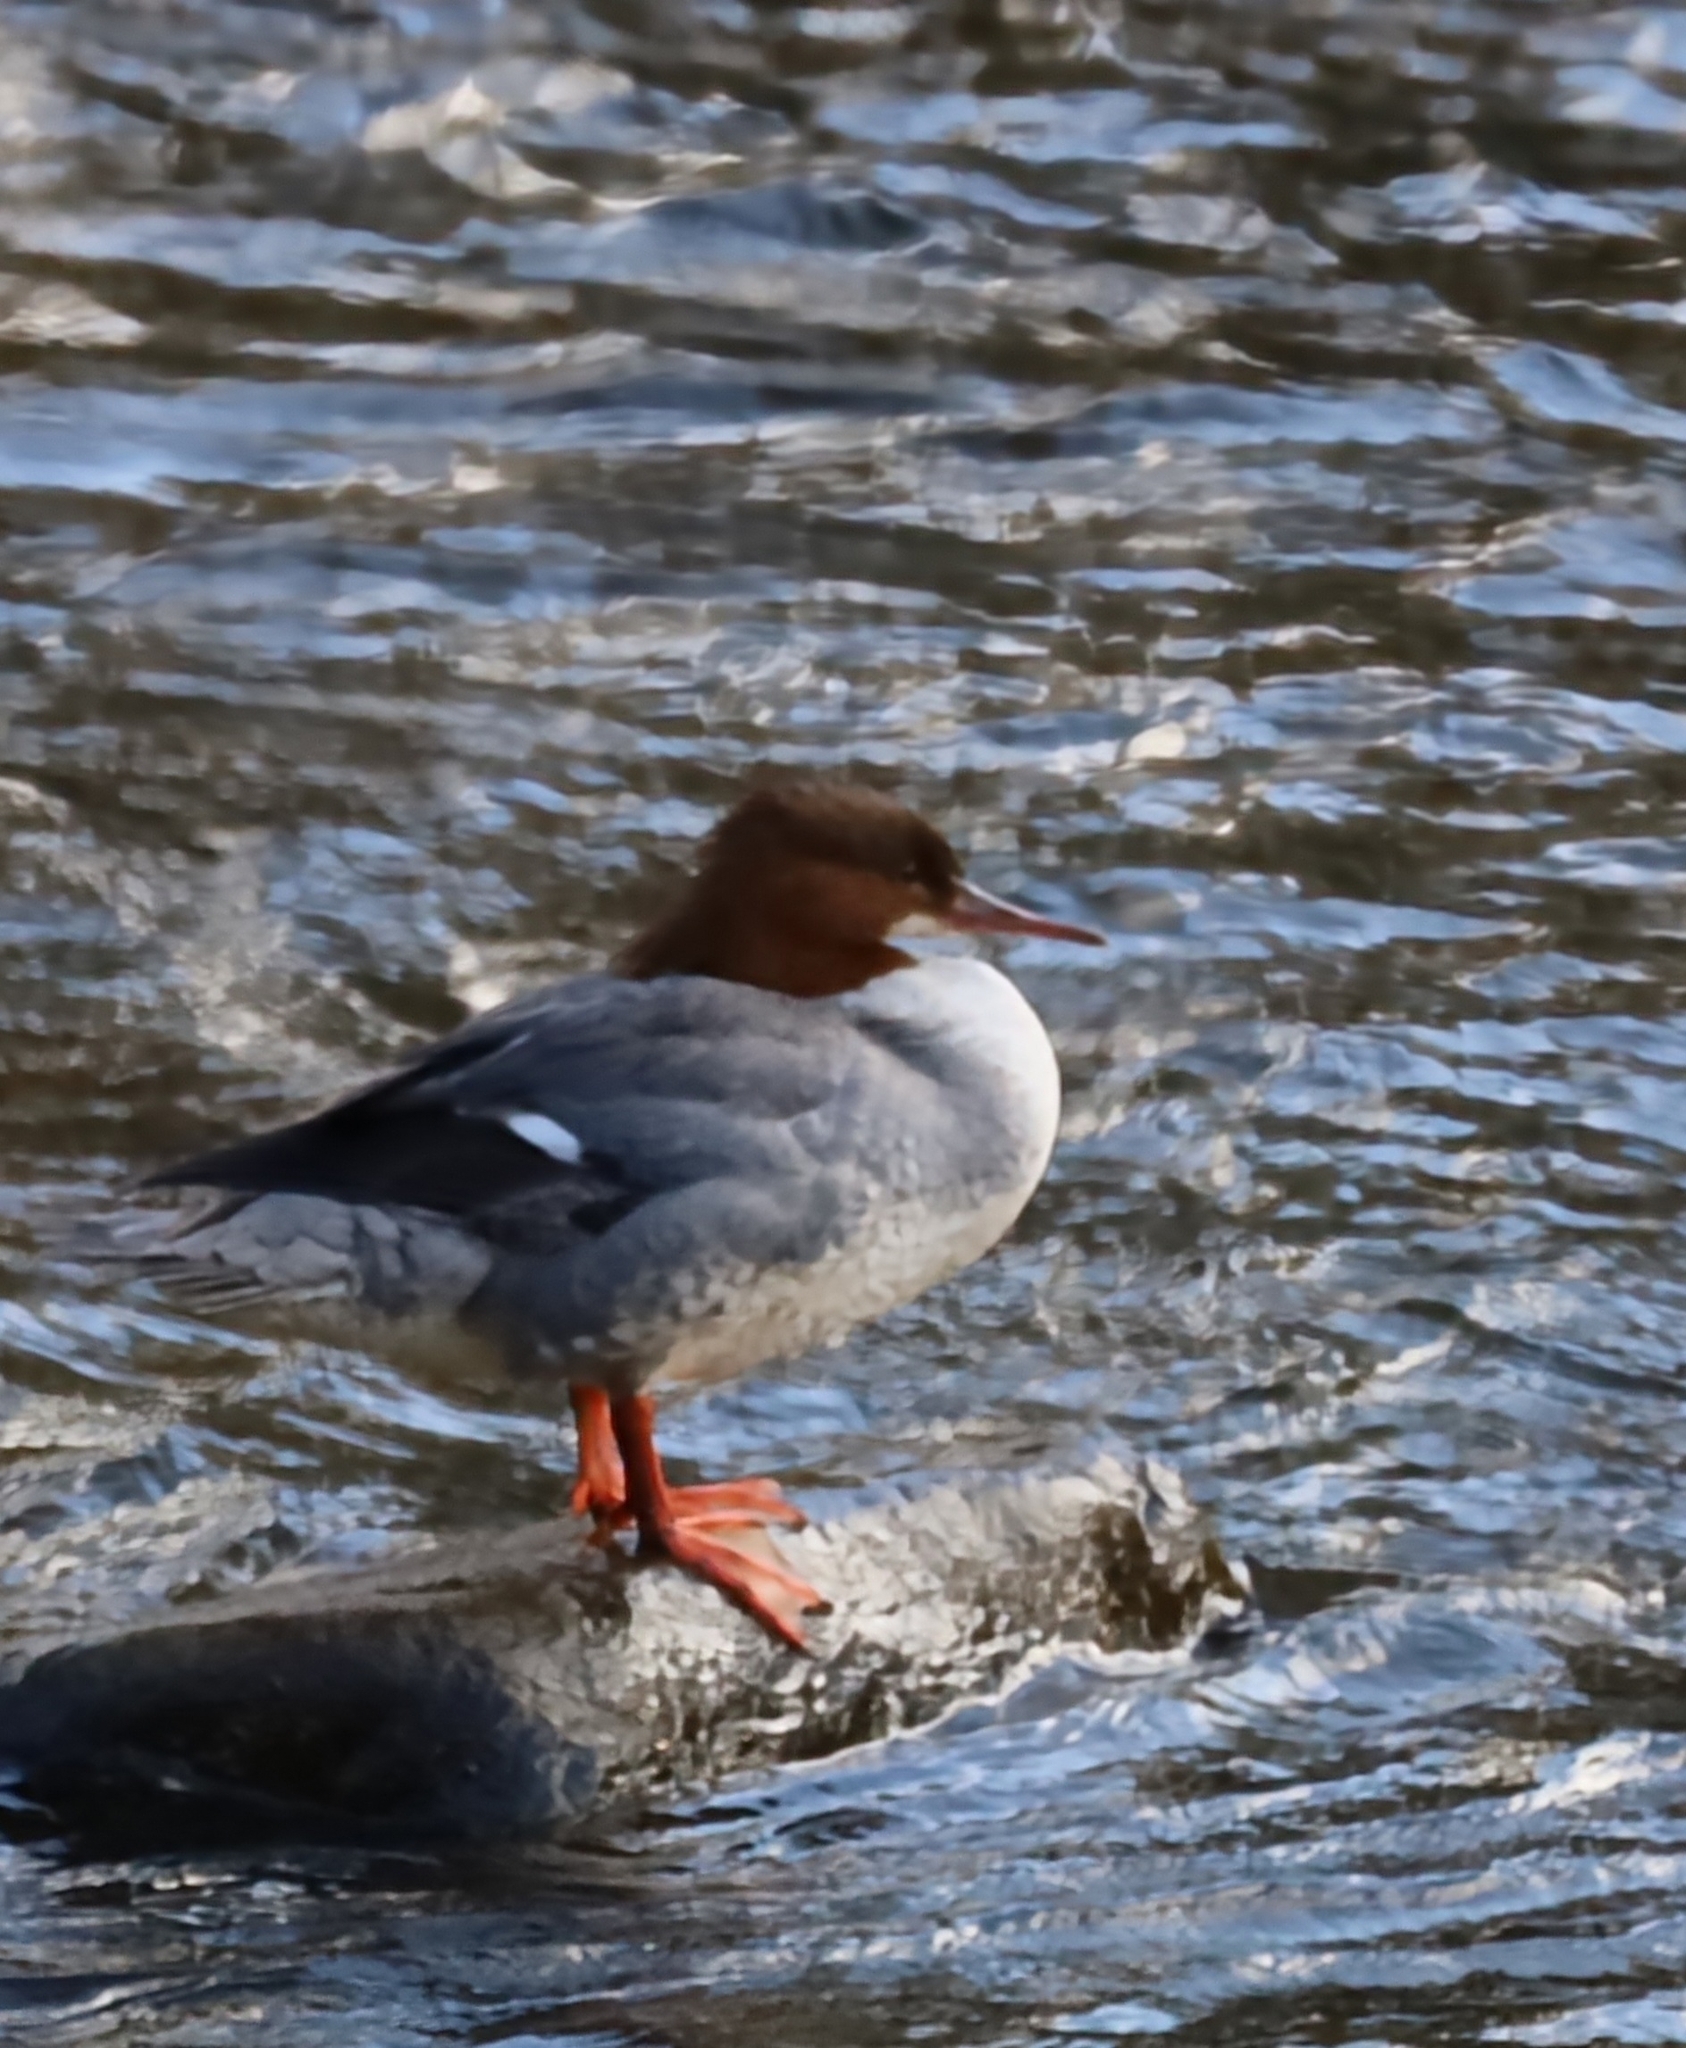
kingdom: Animalia
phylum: Chordata
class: Aves
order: Anseriformes
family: Anatidae
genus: Mergus
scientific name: Mergus merganser
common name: Common merganser
